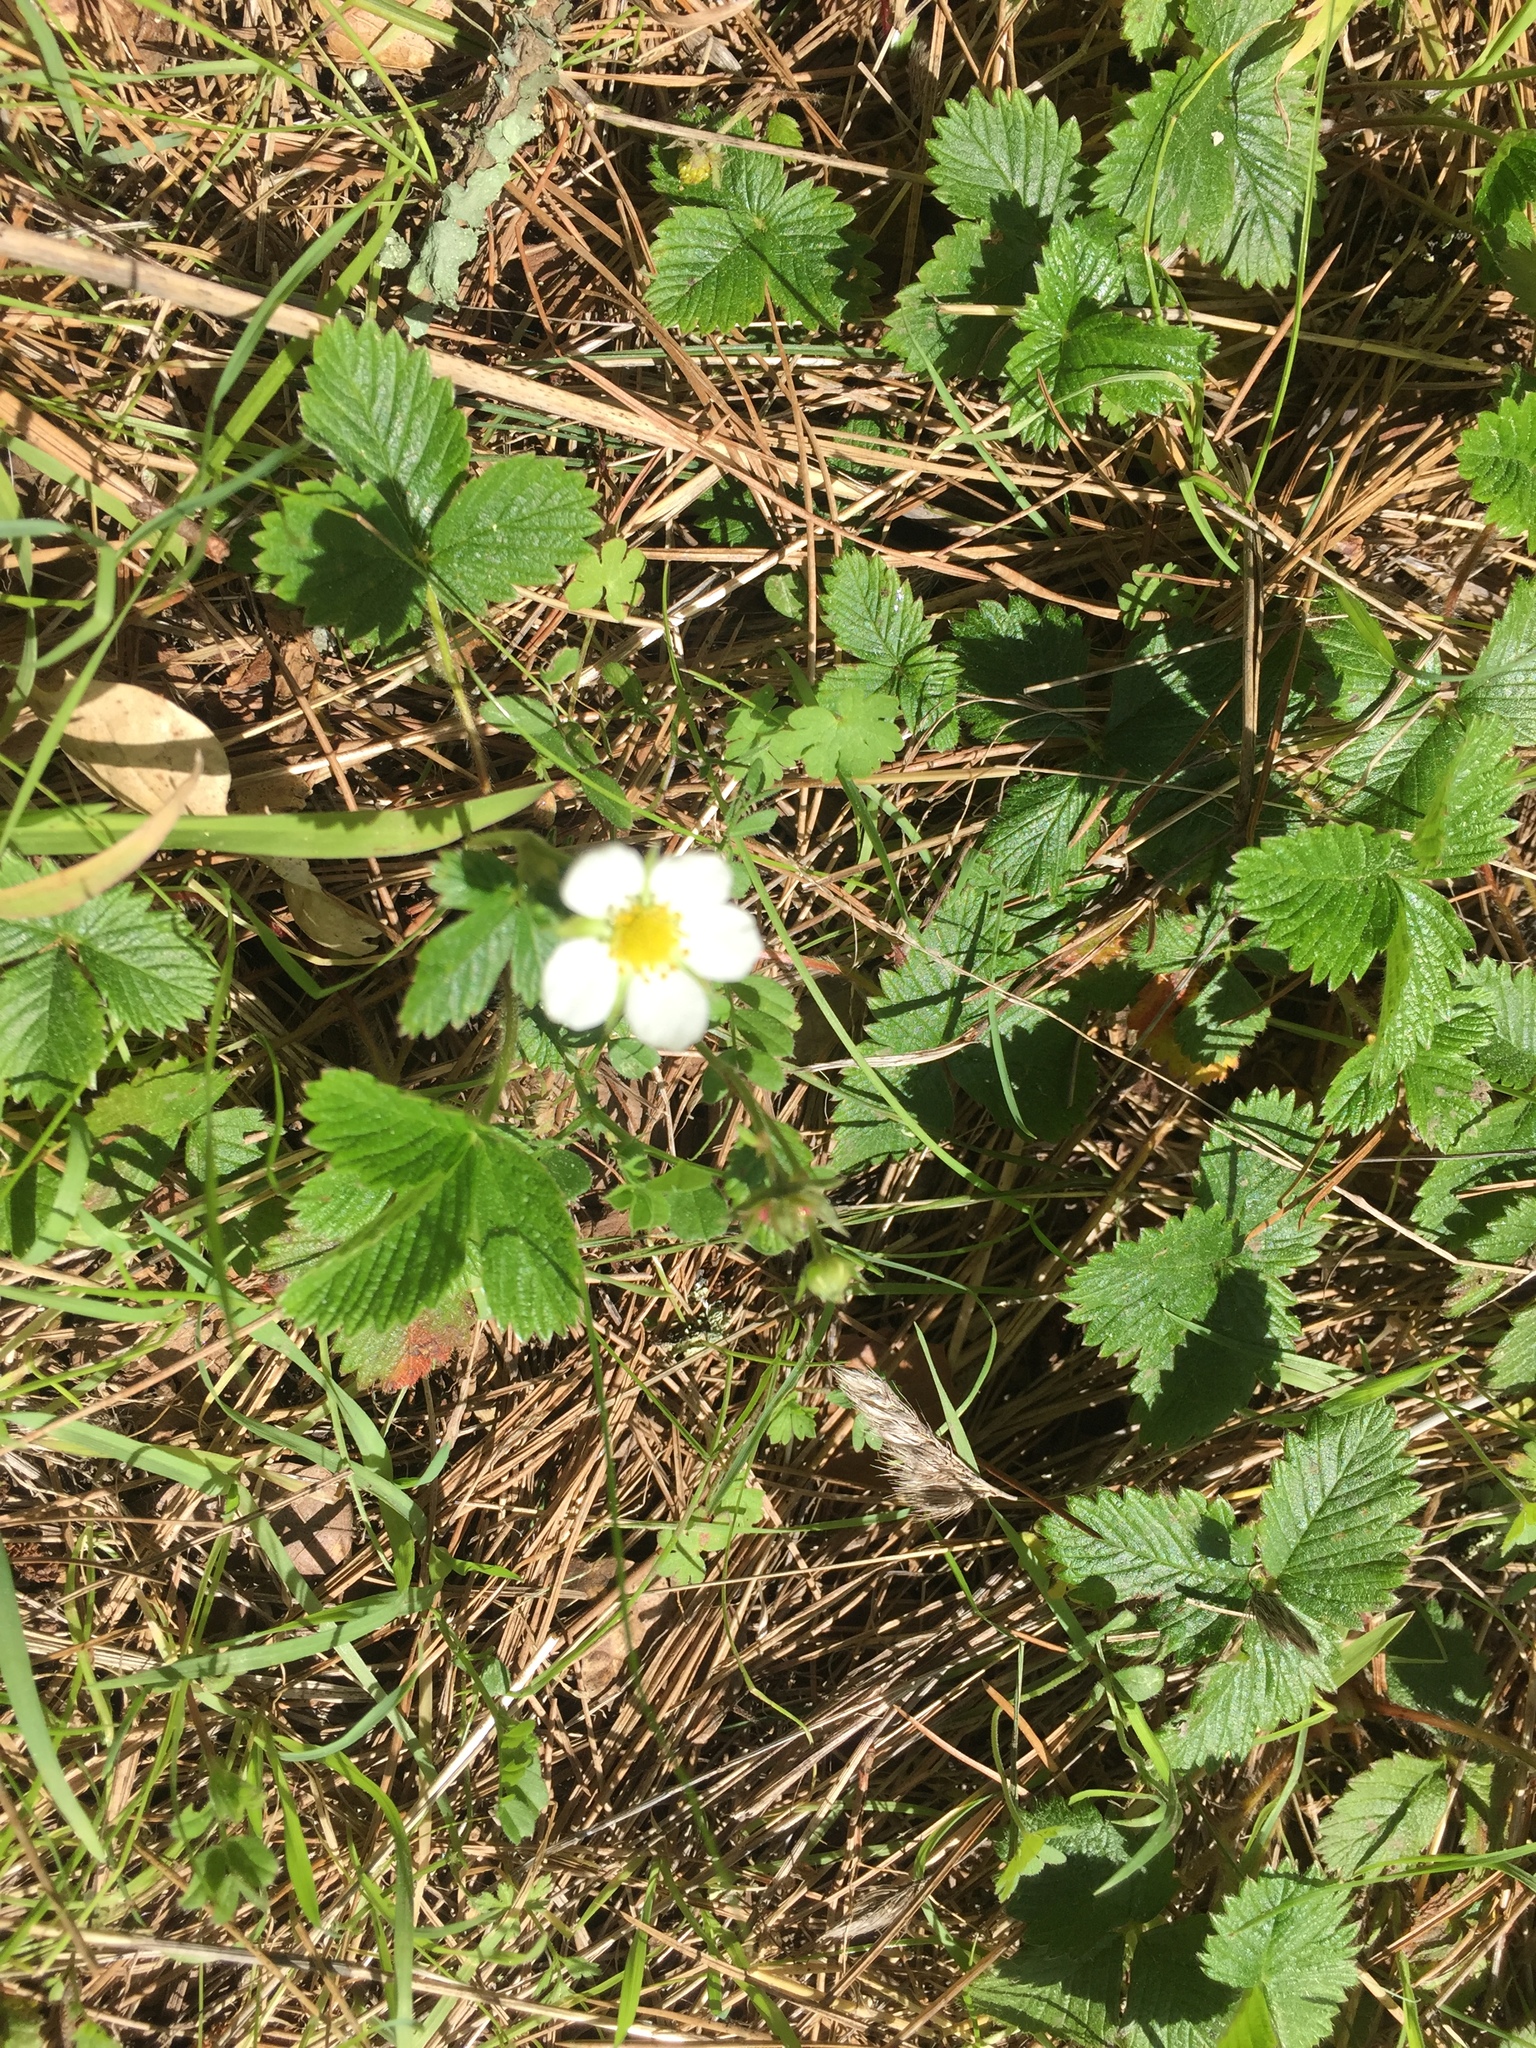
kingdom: Plantae
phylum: Tracheophyta
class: Magnoliopsida
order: Rosales
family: Rosaceae
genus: Fragaria
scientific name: Fragaria vesca
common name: Wild strawberry
